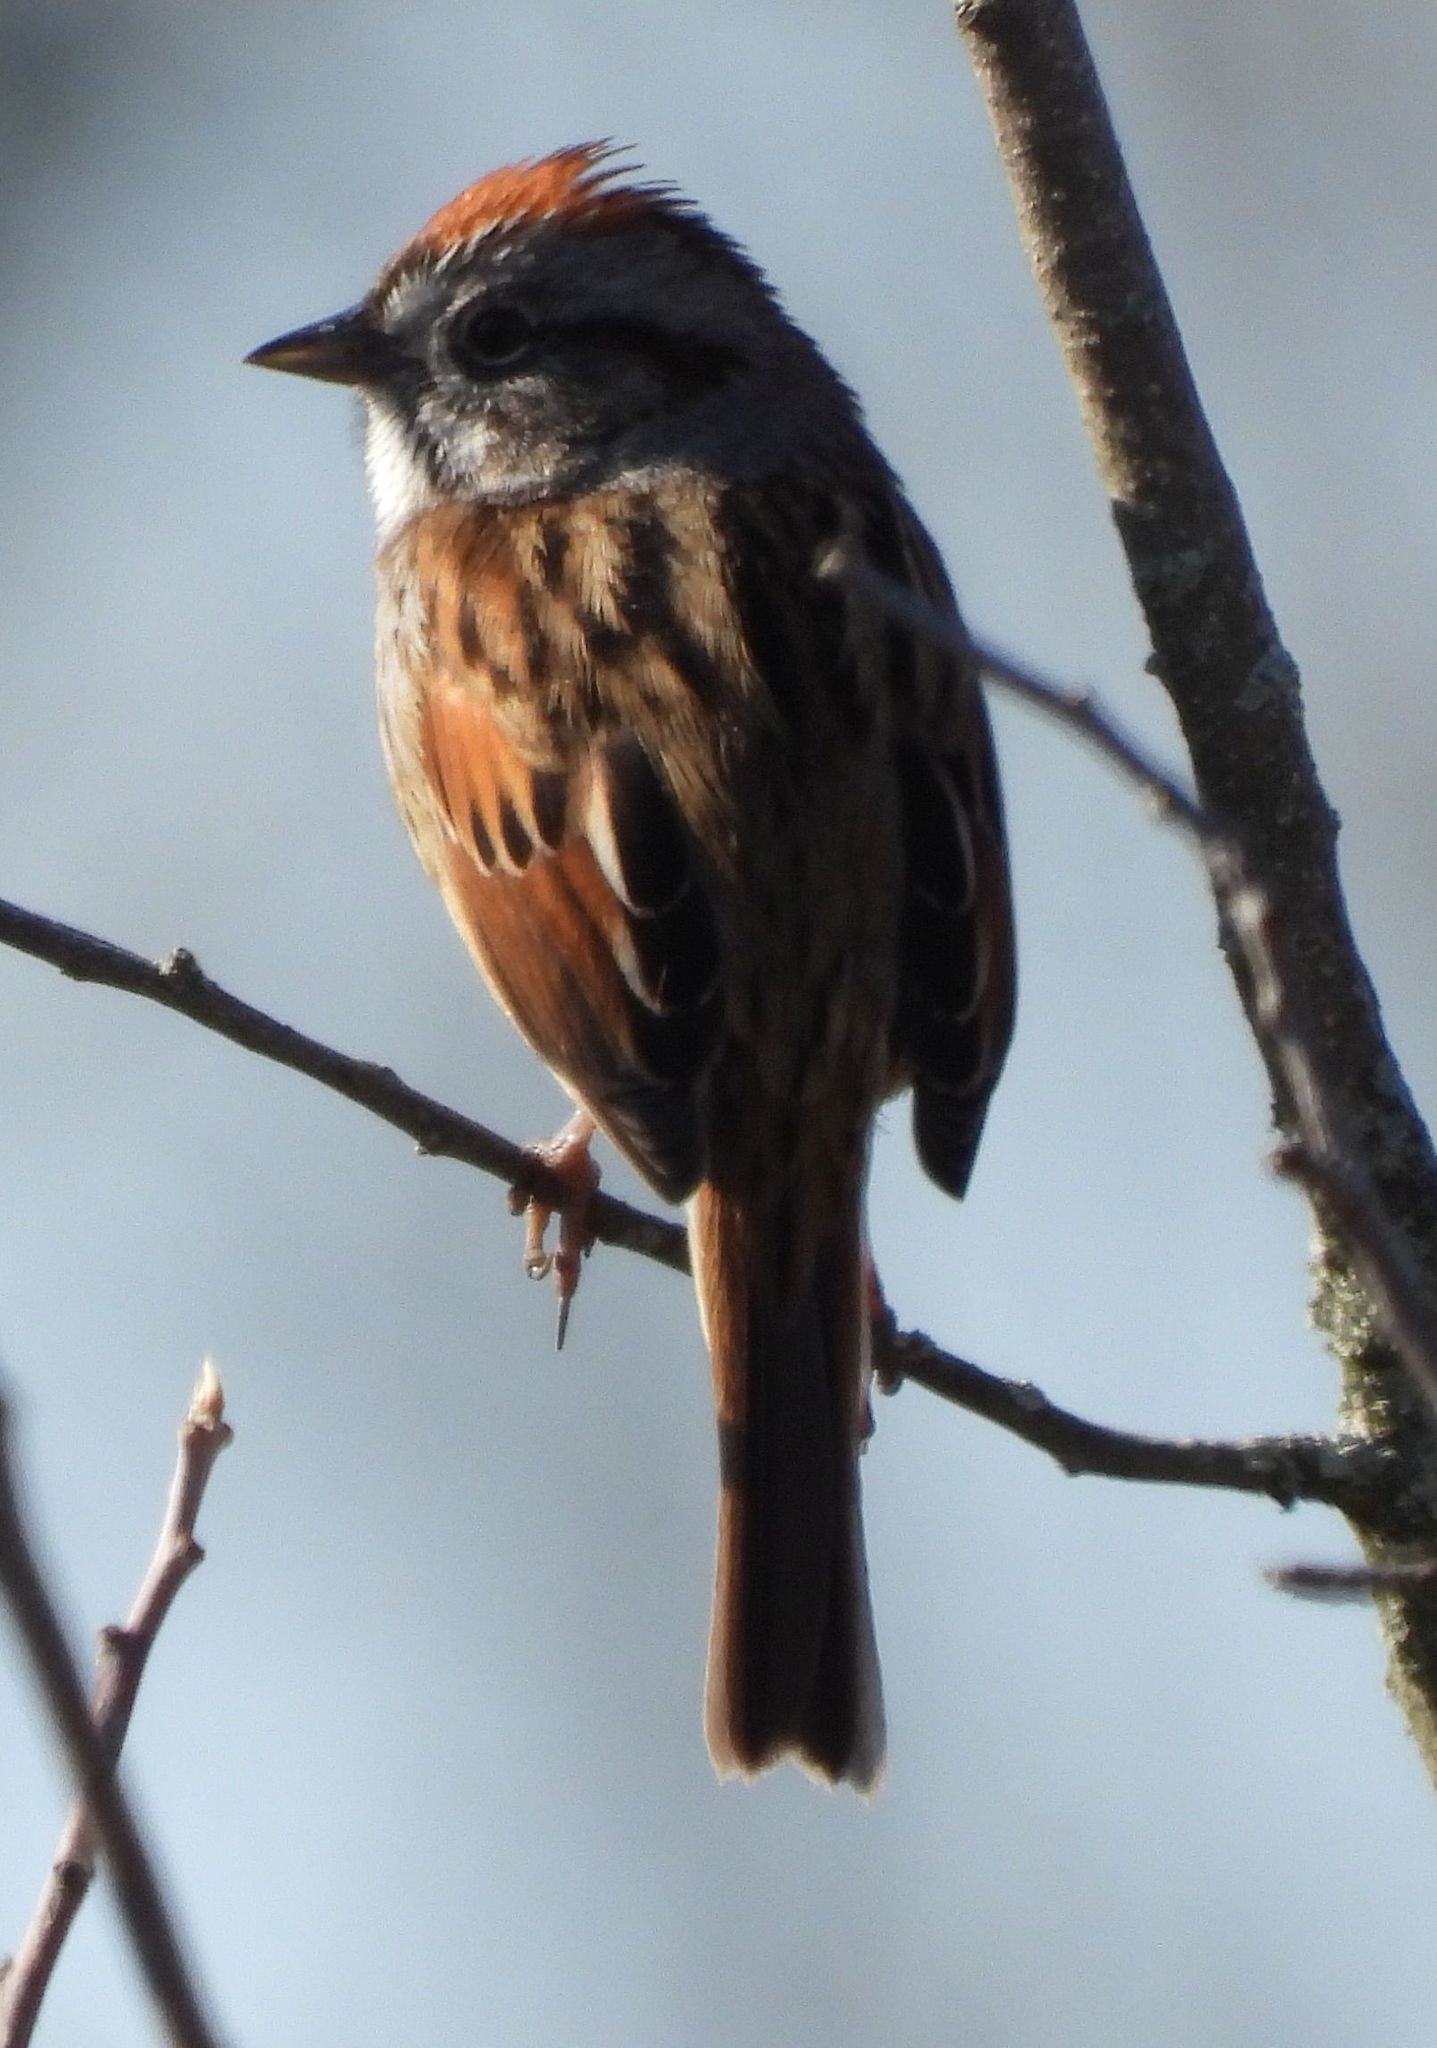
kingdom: Animalia
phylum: Chordata
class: Aves
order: Passeriformes
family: Passerellidae
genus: Melospiza
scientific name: Melospiza georgiana
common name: Swamp sparrow
